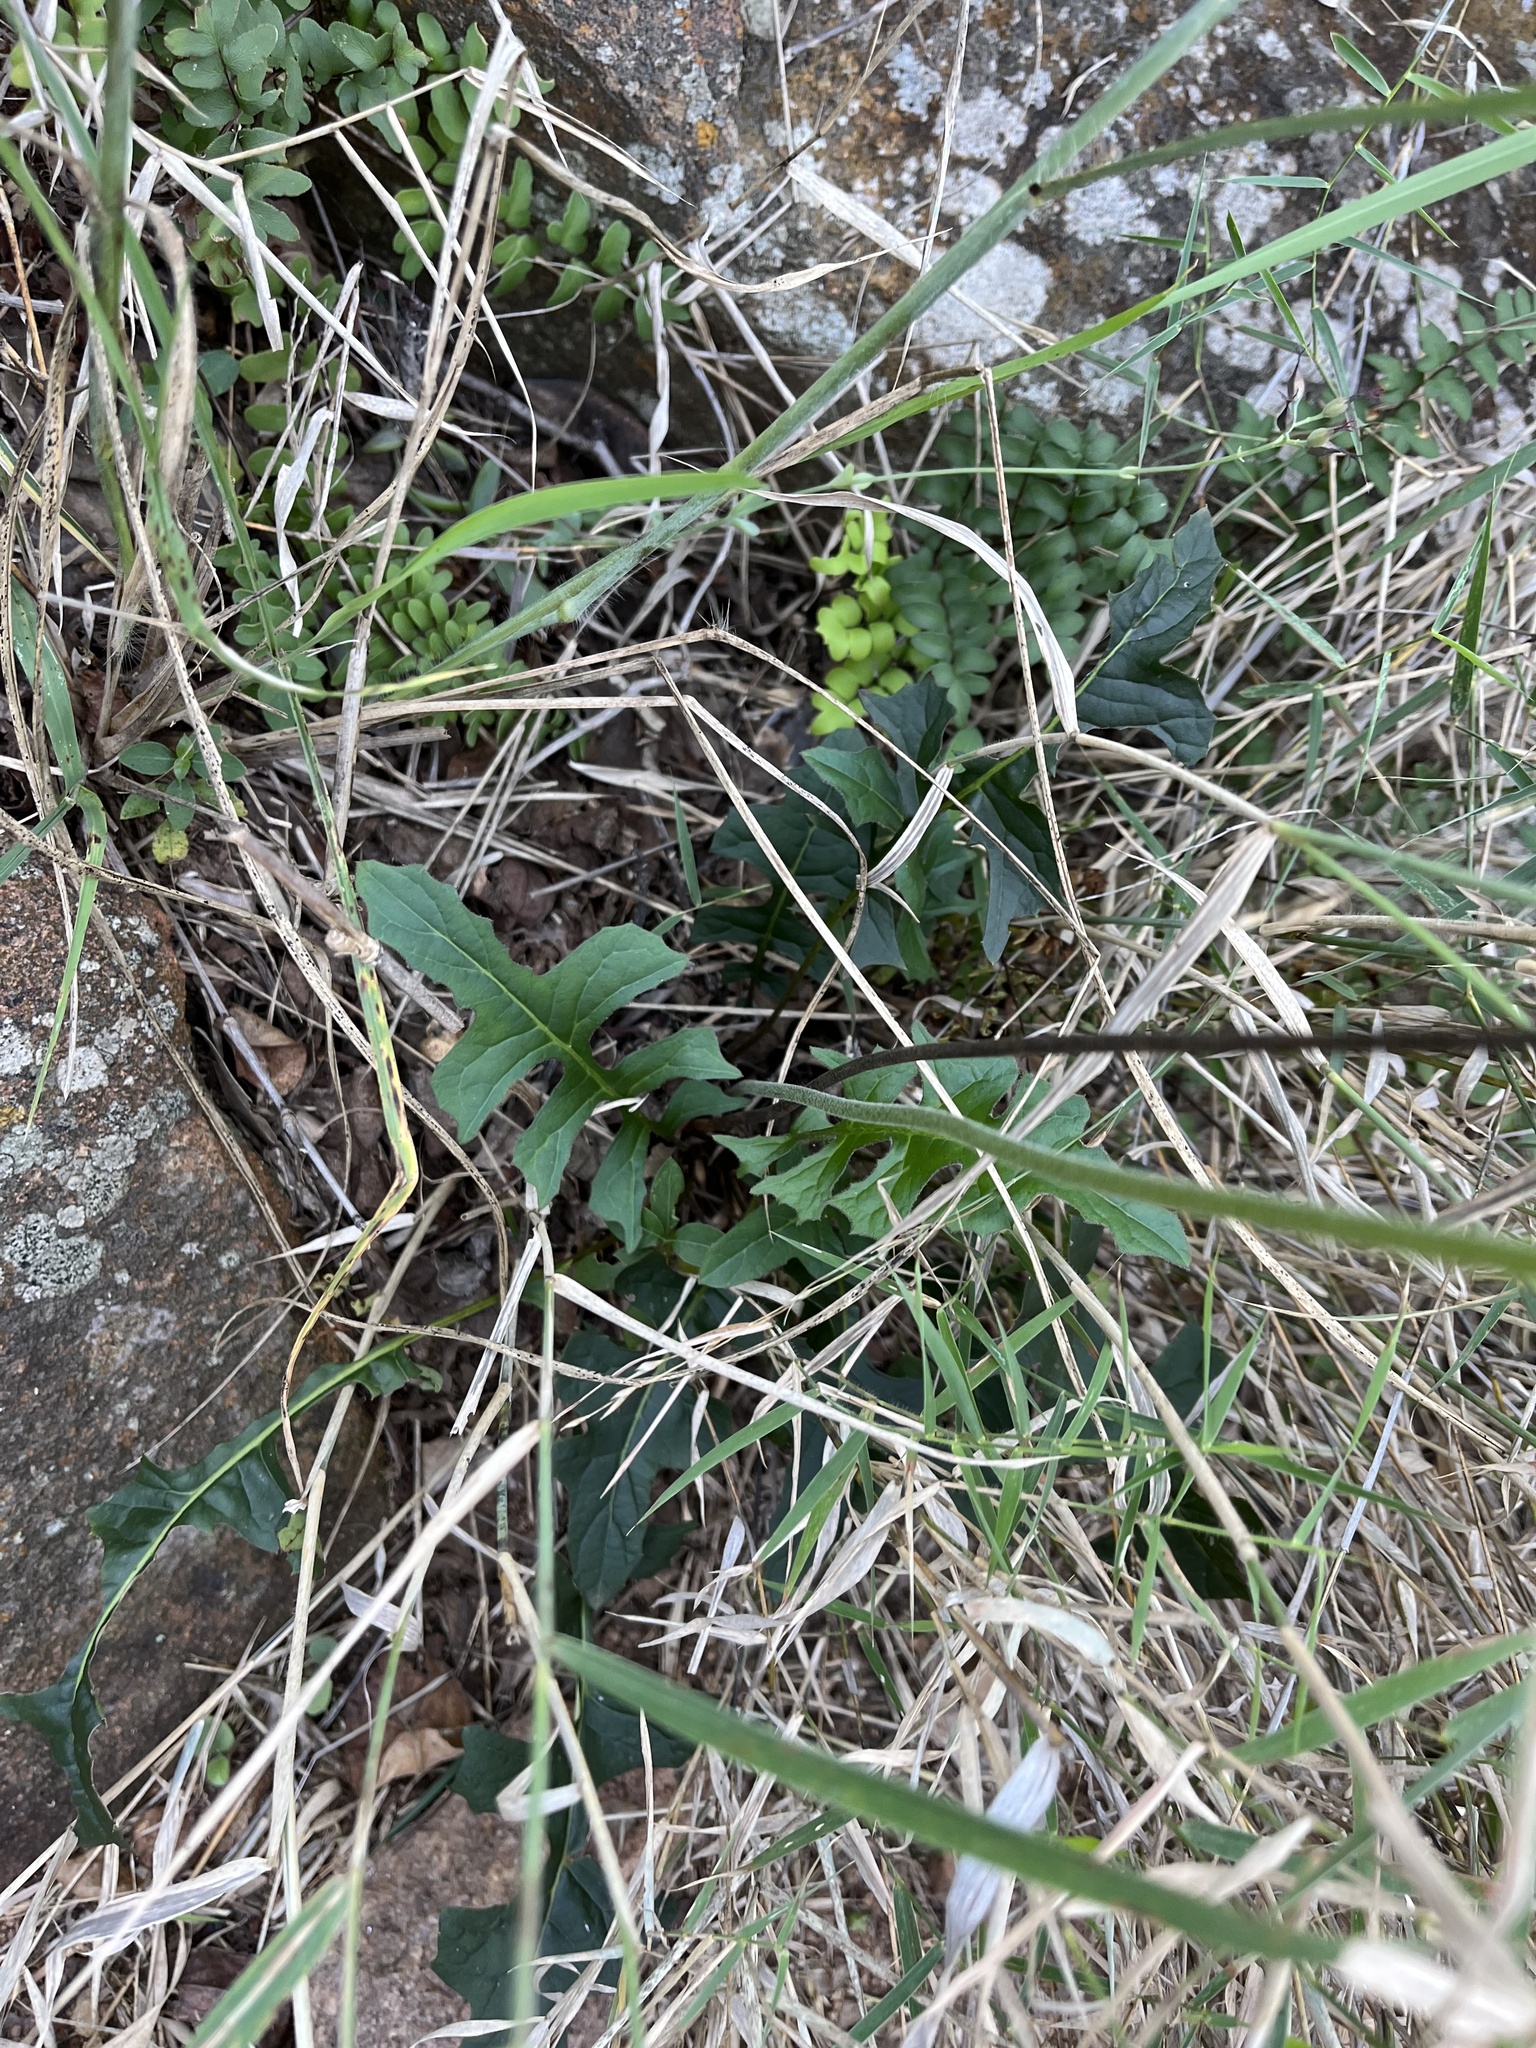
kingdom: Plantae
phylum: Tracheophyta
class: Magnoliopsida
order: Asterales
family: Asteraceae
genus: Gerbera
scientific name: Gerbera jamesonii
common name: African daisy
